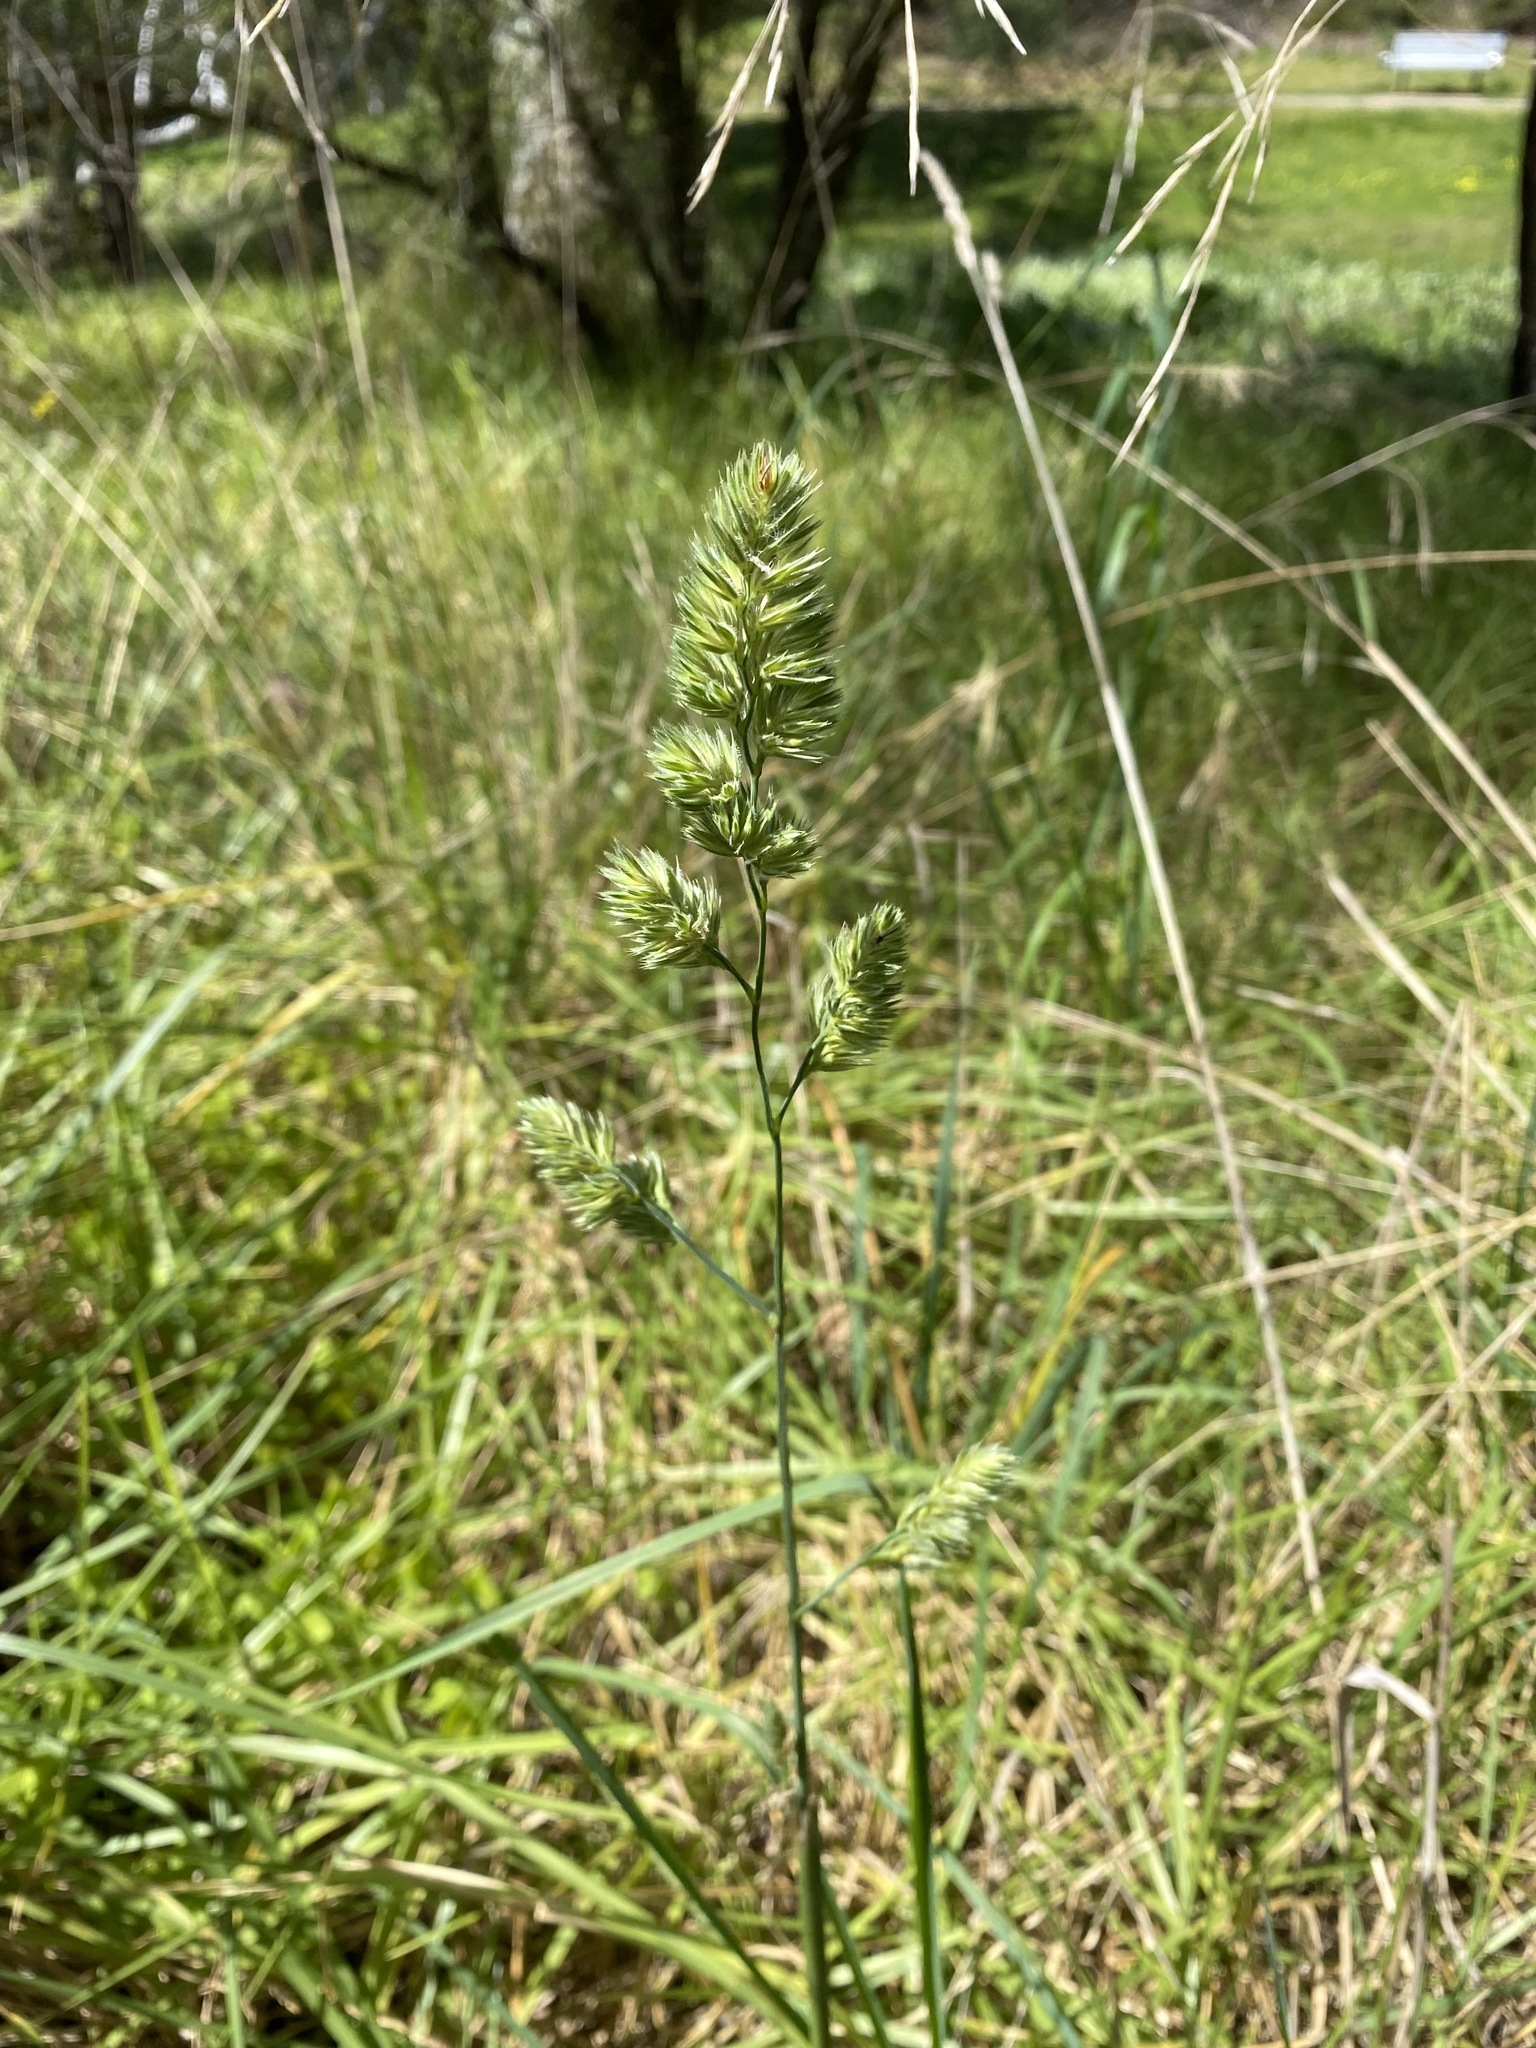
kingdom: Plantae
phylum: Tracheophyta
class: Liliopsida
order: Poales
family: Poaceae
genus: Dactylis
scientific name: Dactylis glomerata
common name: Orchardgrass
